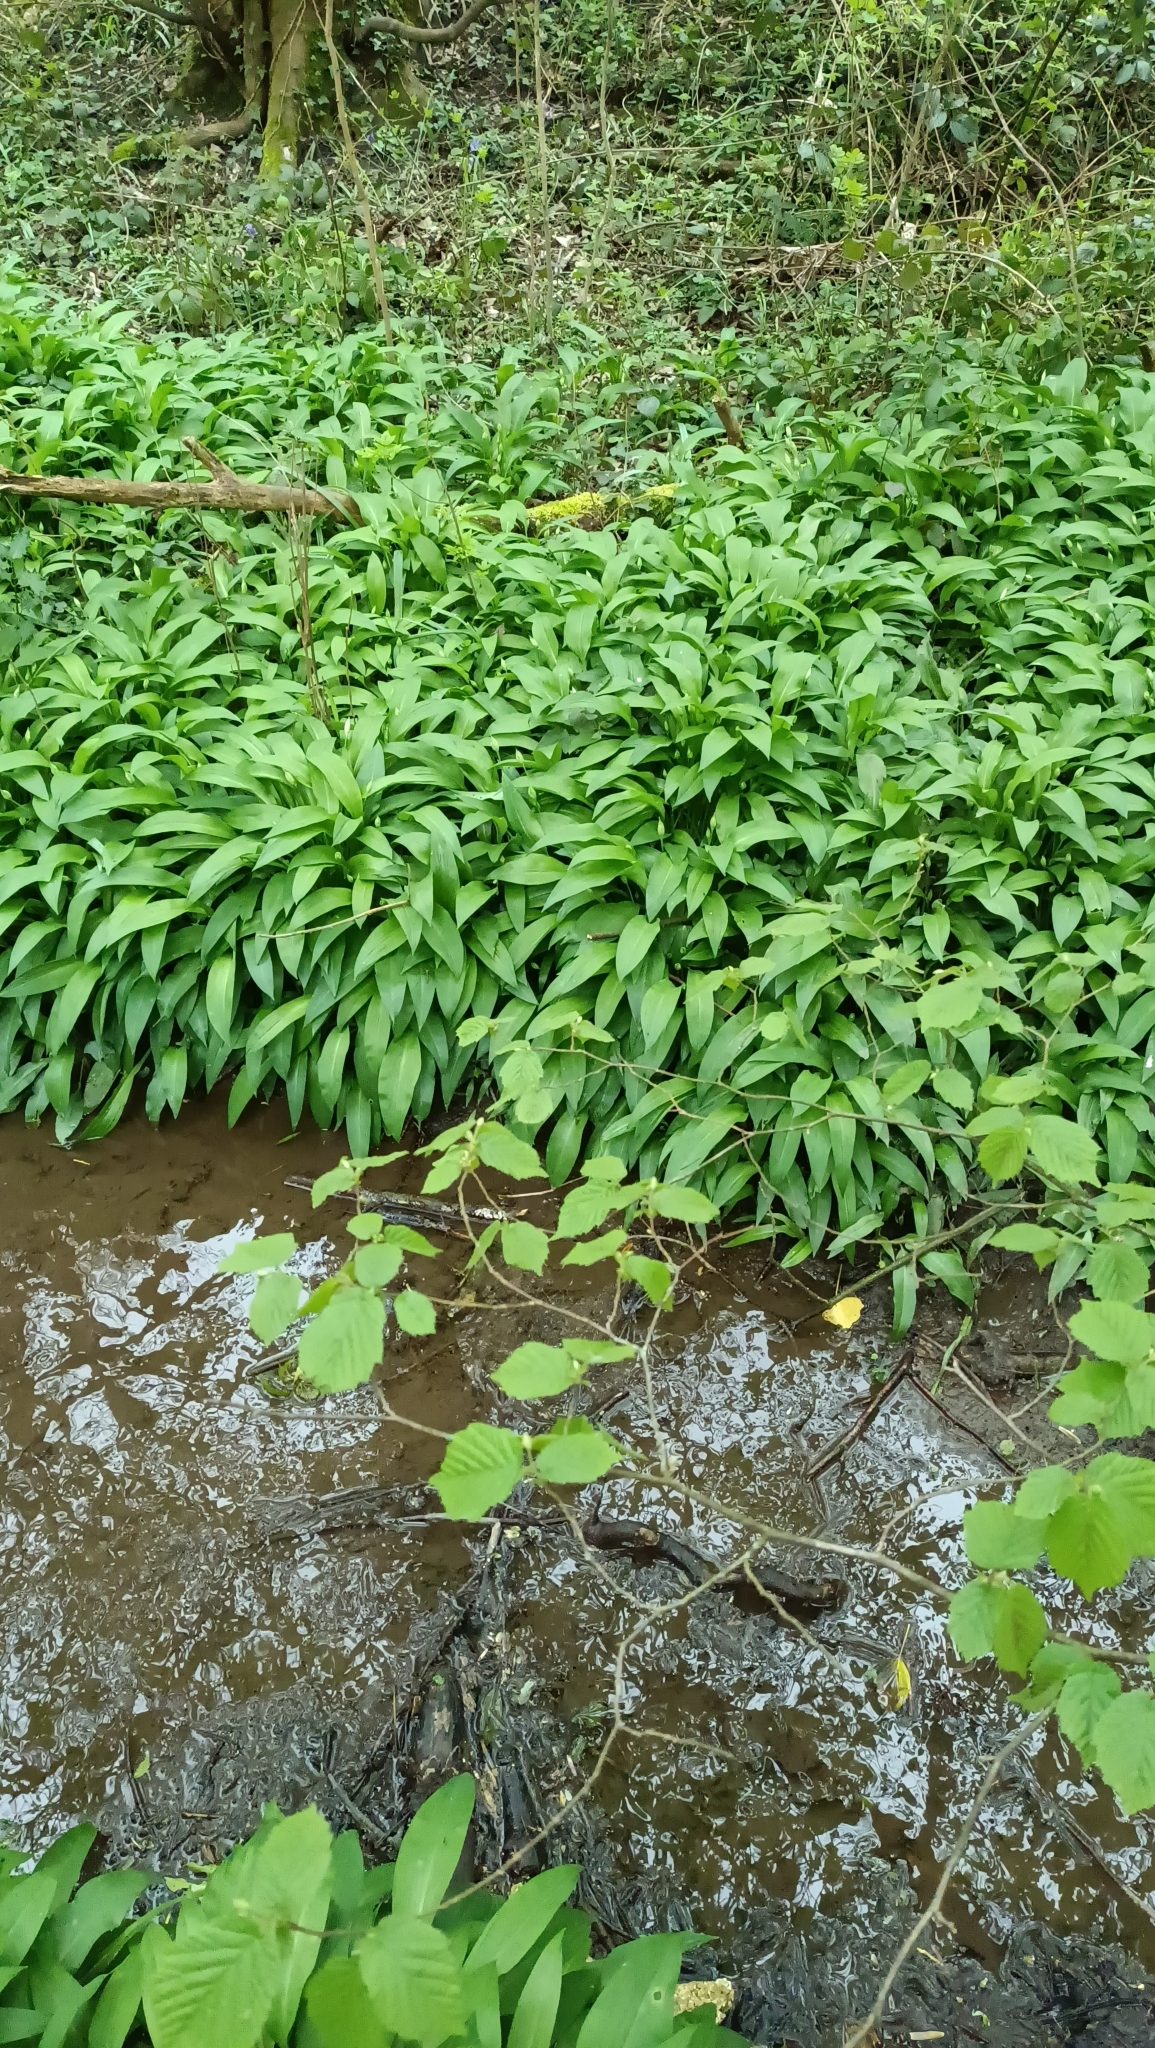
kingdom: Plantae
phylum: Tracheophyta
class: Liliopsida
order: Asparagales
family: Amaryllidaceae
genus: Allium
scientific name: Allium ursinum
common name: Ramsons
